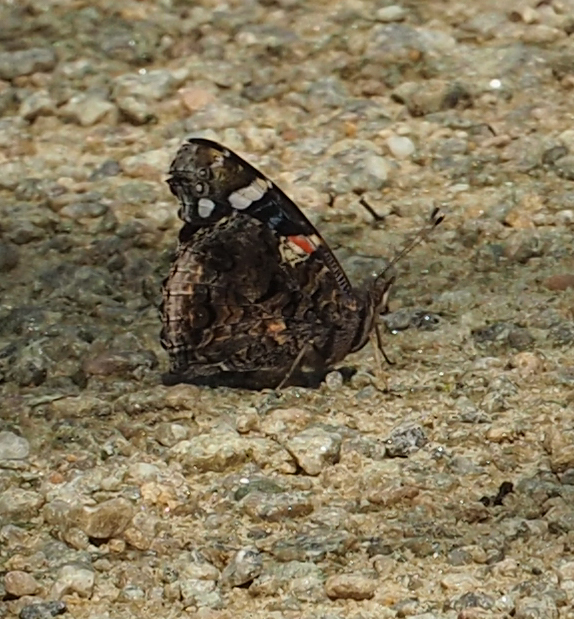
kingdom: Animalia
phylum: Arthropoda
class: Insecta
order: Lepidoptera
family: Nymphalidae
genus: Vanessa
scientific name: Vanessa atalanta
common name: Red admiral
